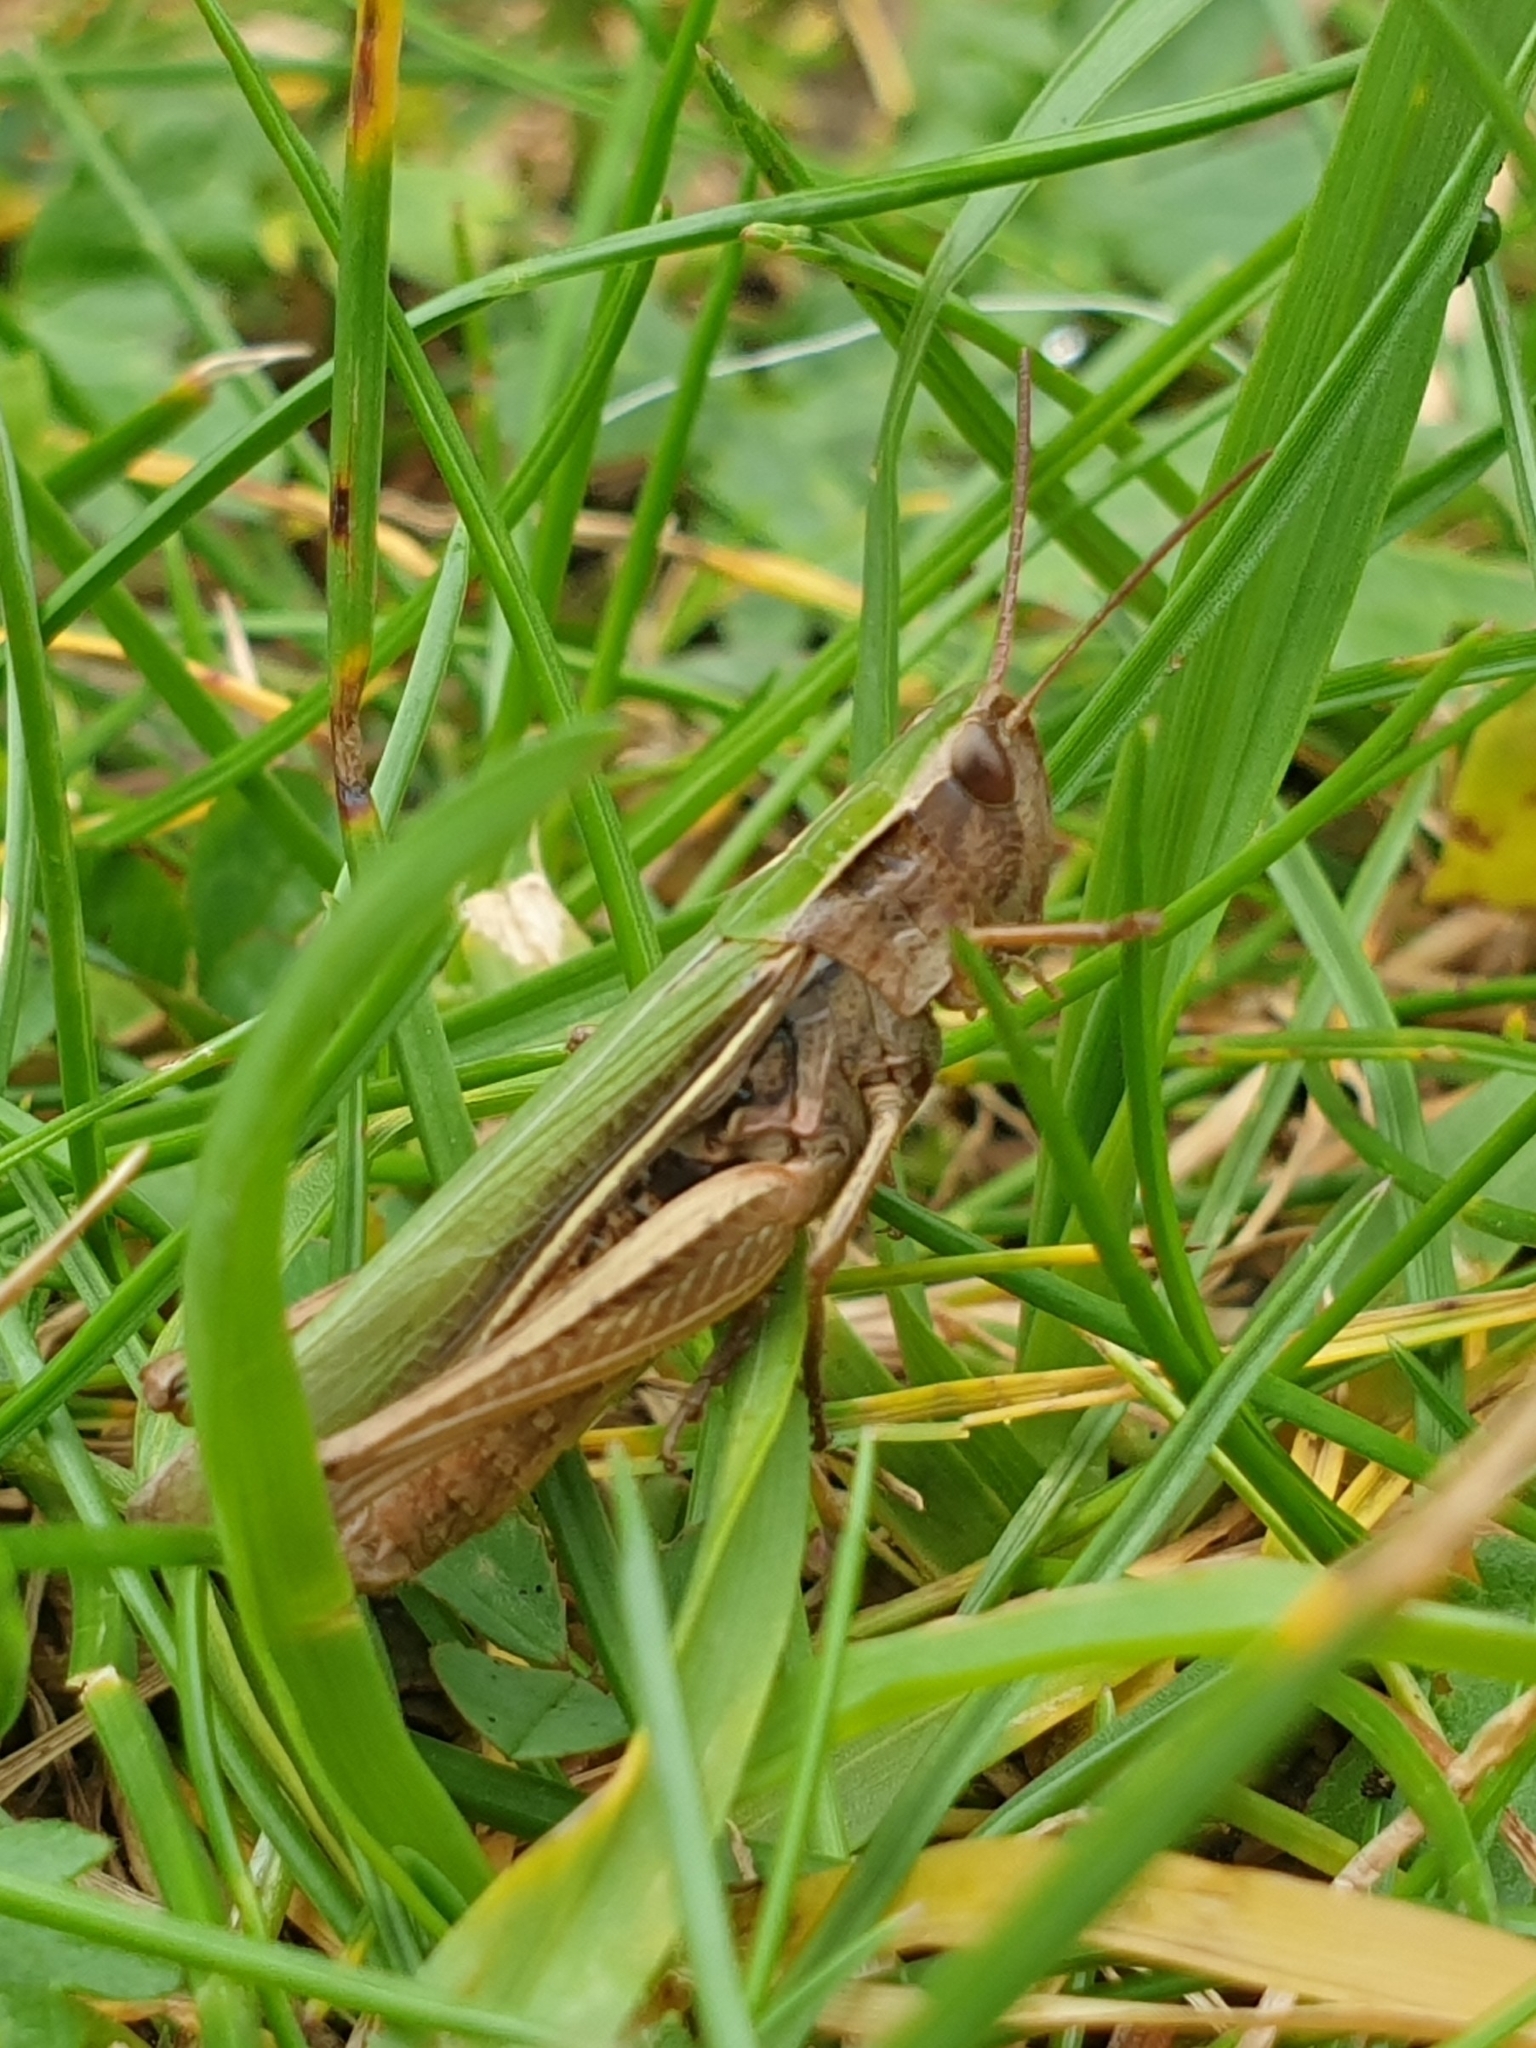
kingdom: Animalia
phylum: Arthropoda
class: Insecta
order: Orthoptera
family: Acrididae
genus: Chorthippus
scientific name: Chorthippus albomarginatus
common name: Lesser marsh grasshopper
